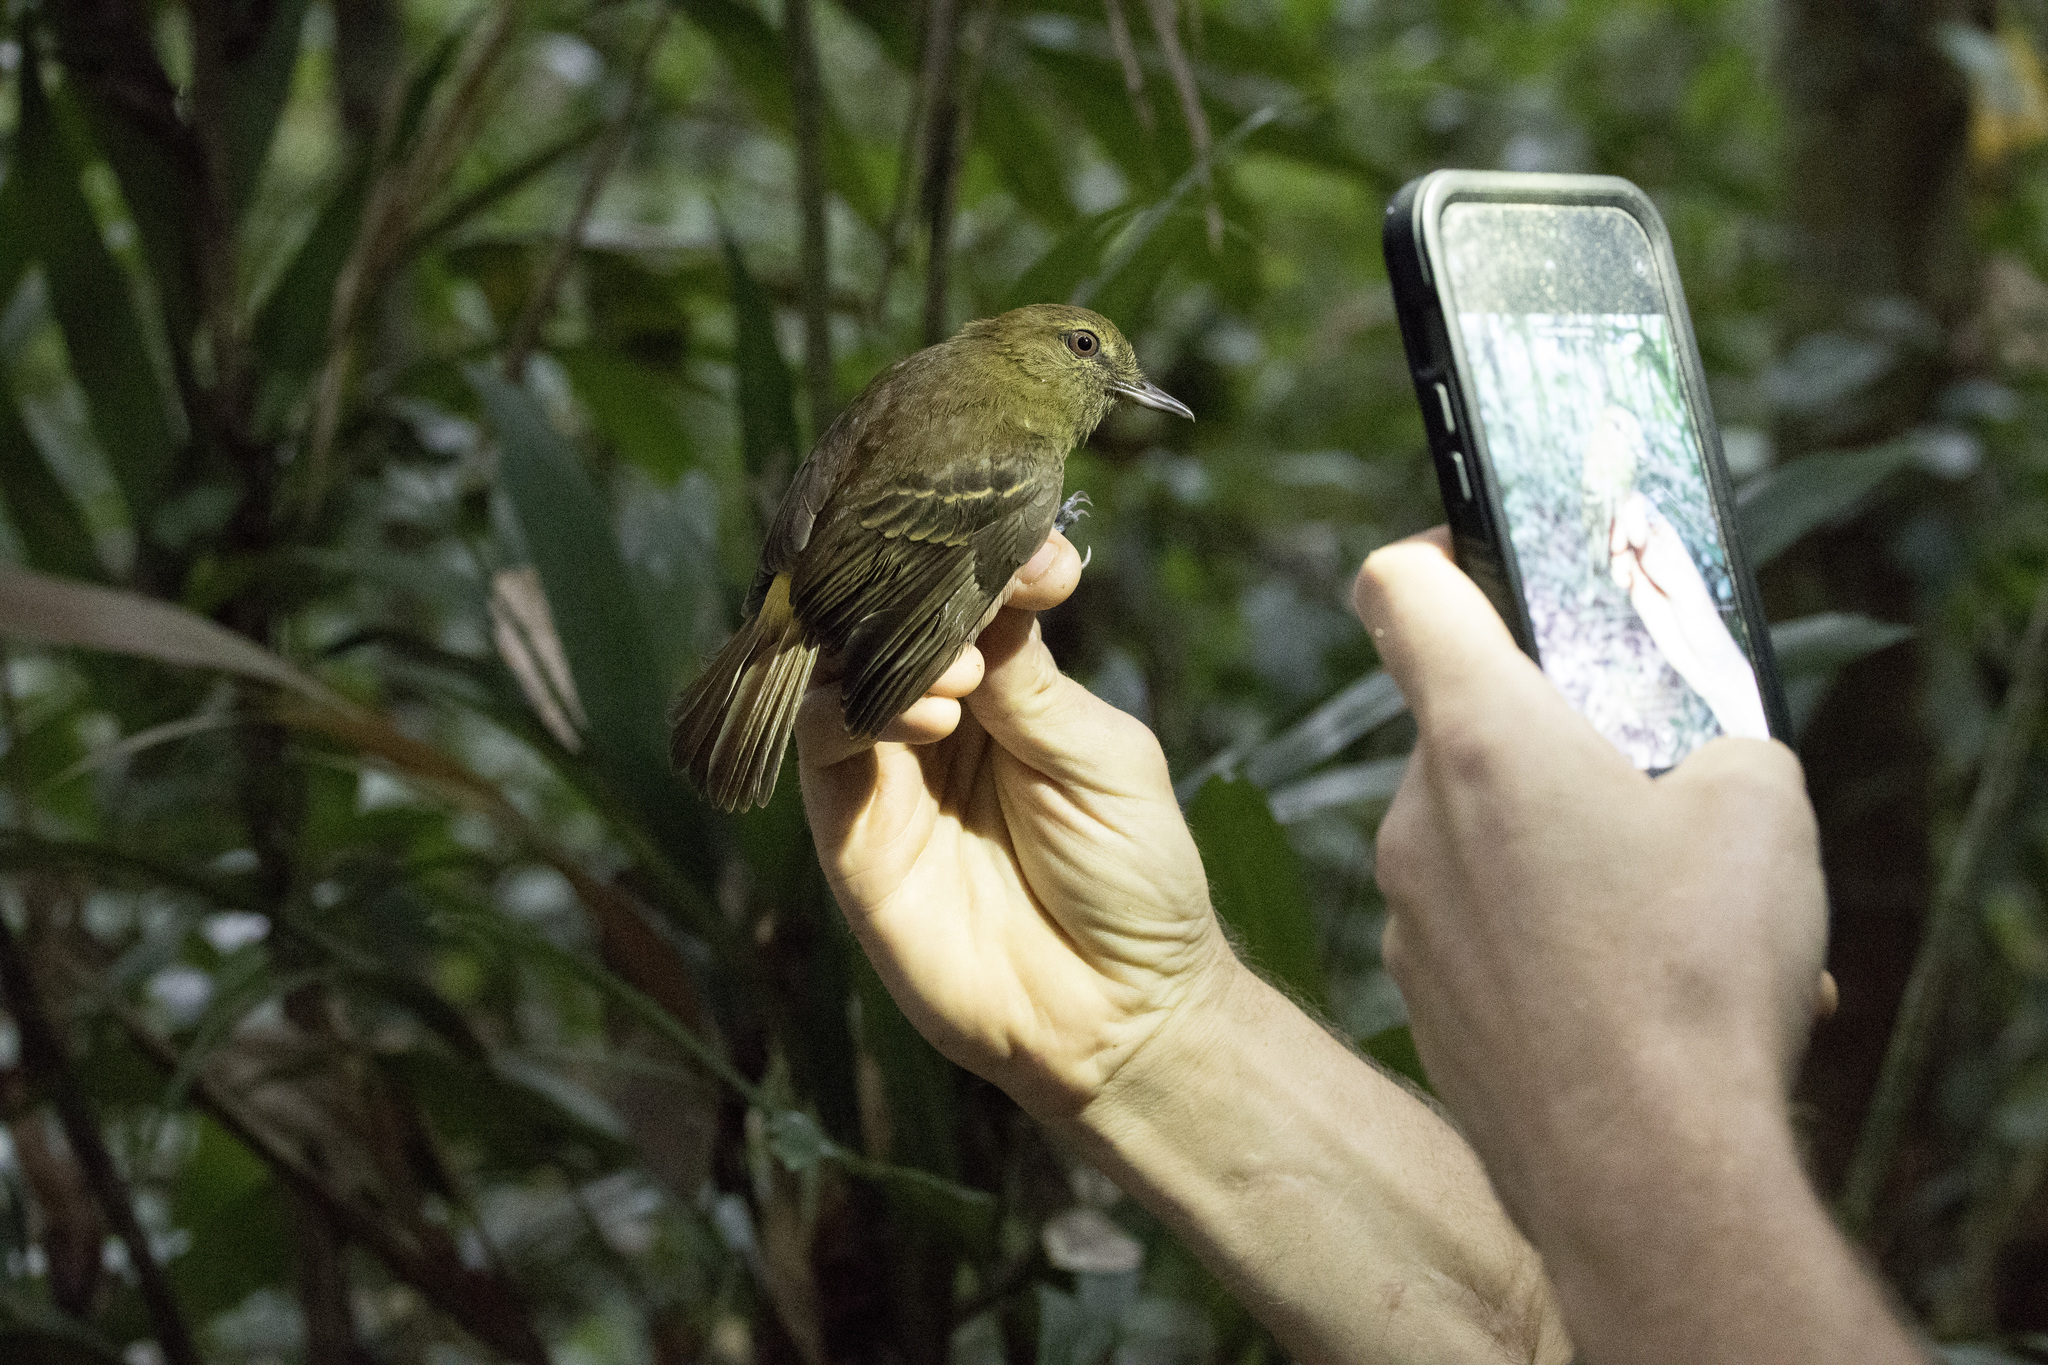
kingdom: Animalia
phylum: Chordata
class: Aves
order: Passeriformes
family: Tyrannidae
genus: Attila
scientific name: Attila spadiceus
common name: Bright-rumped attila
